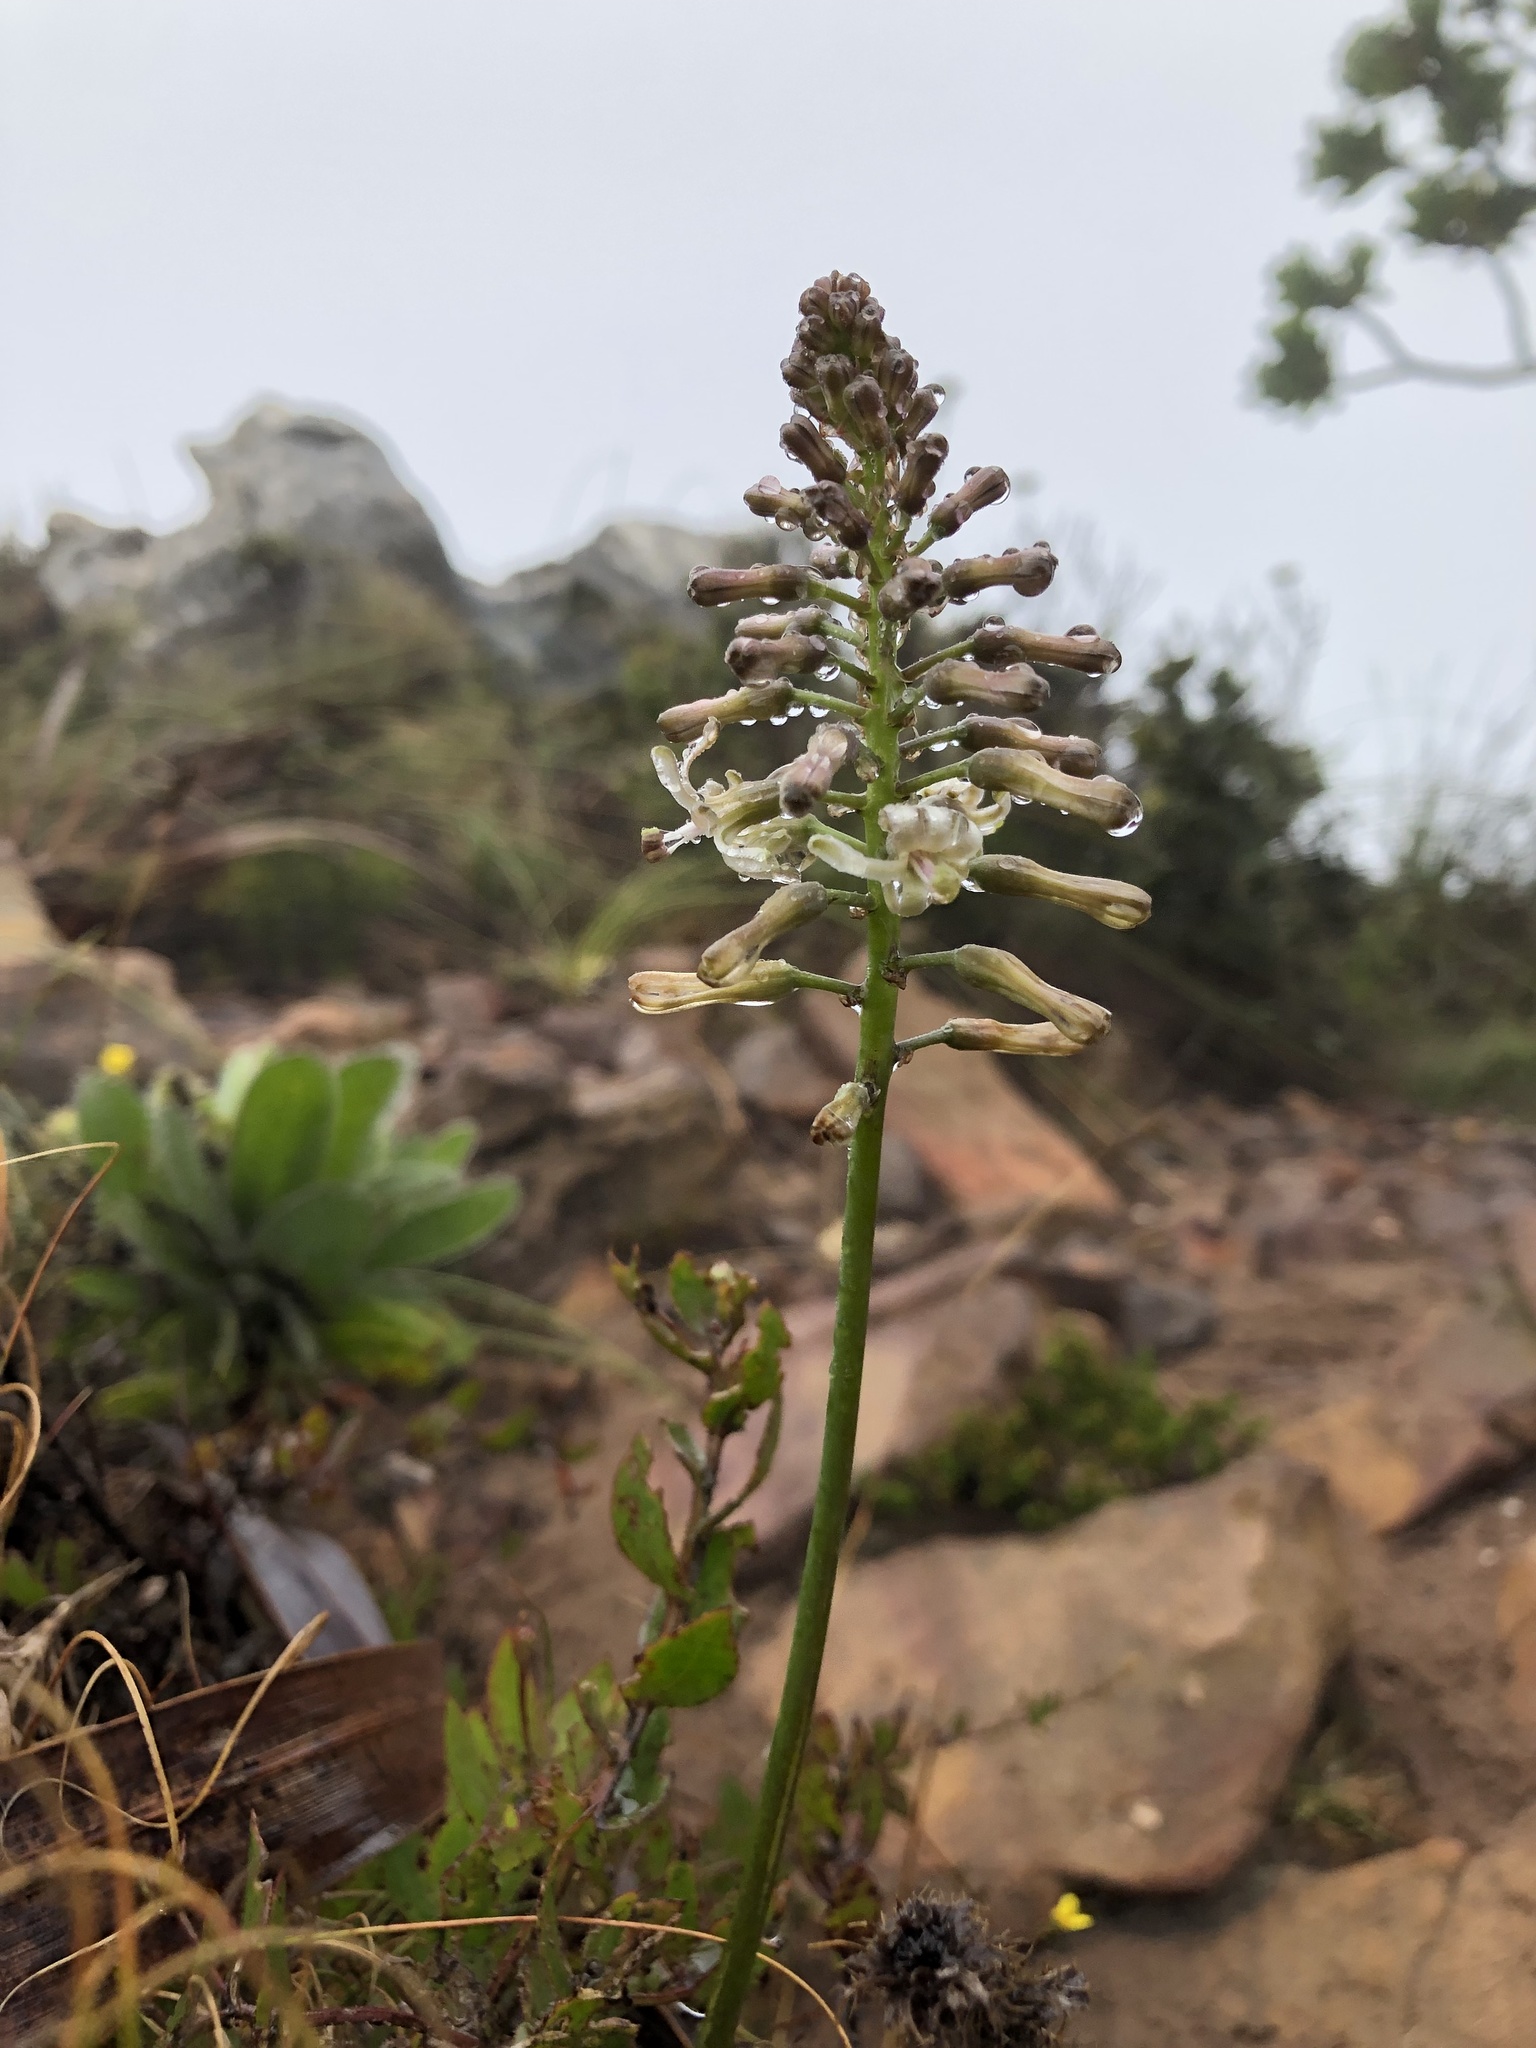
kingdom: Plantae
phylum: Tracheophyta
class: Liliopsida
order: Asparagales
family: Asparagaceae
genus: Drimia
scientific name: Drimia media
